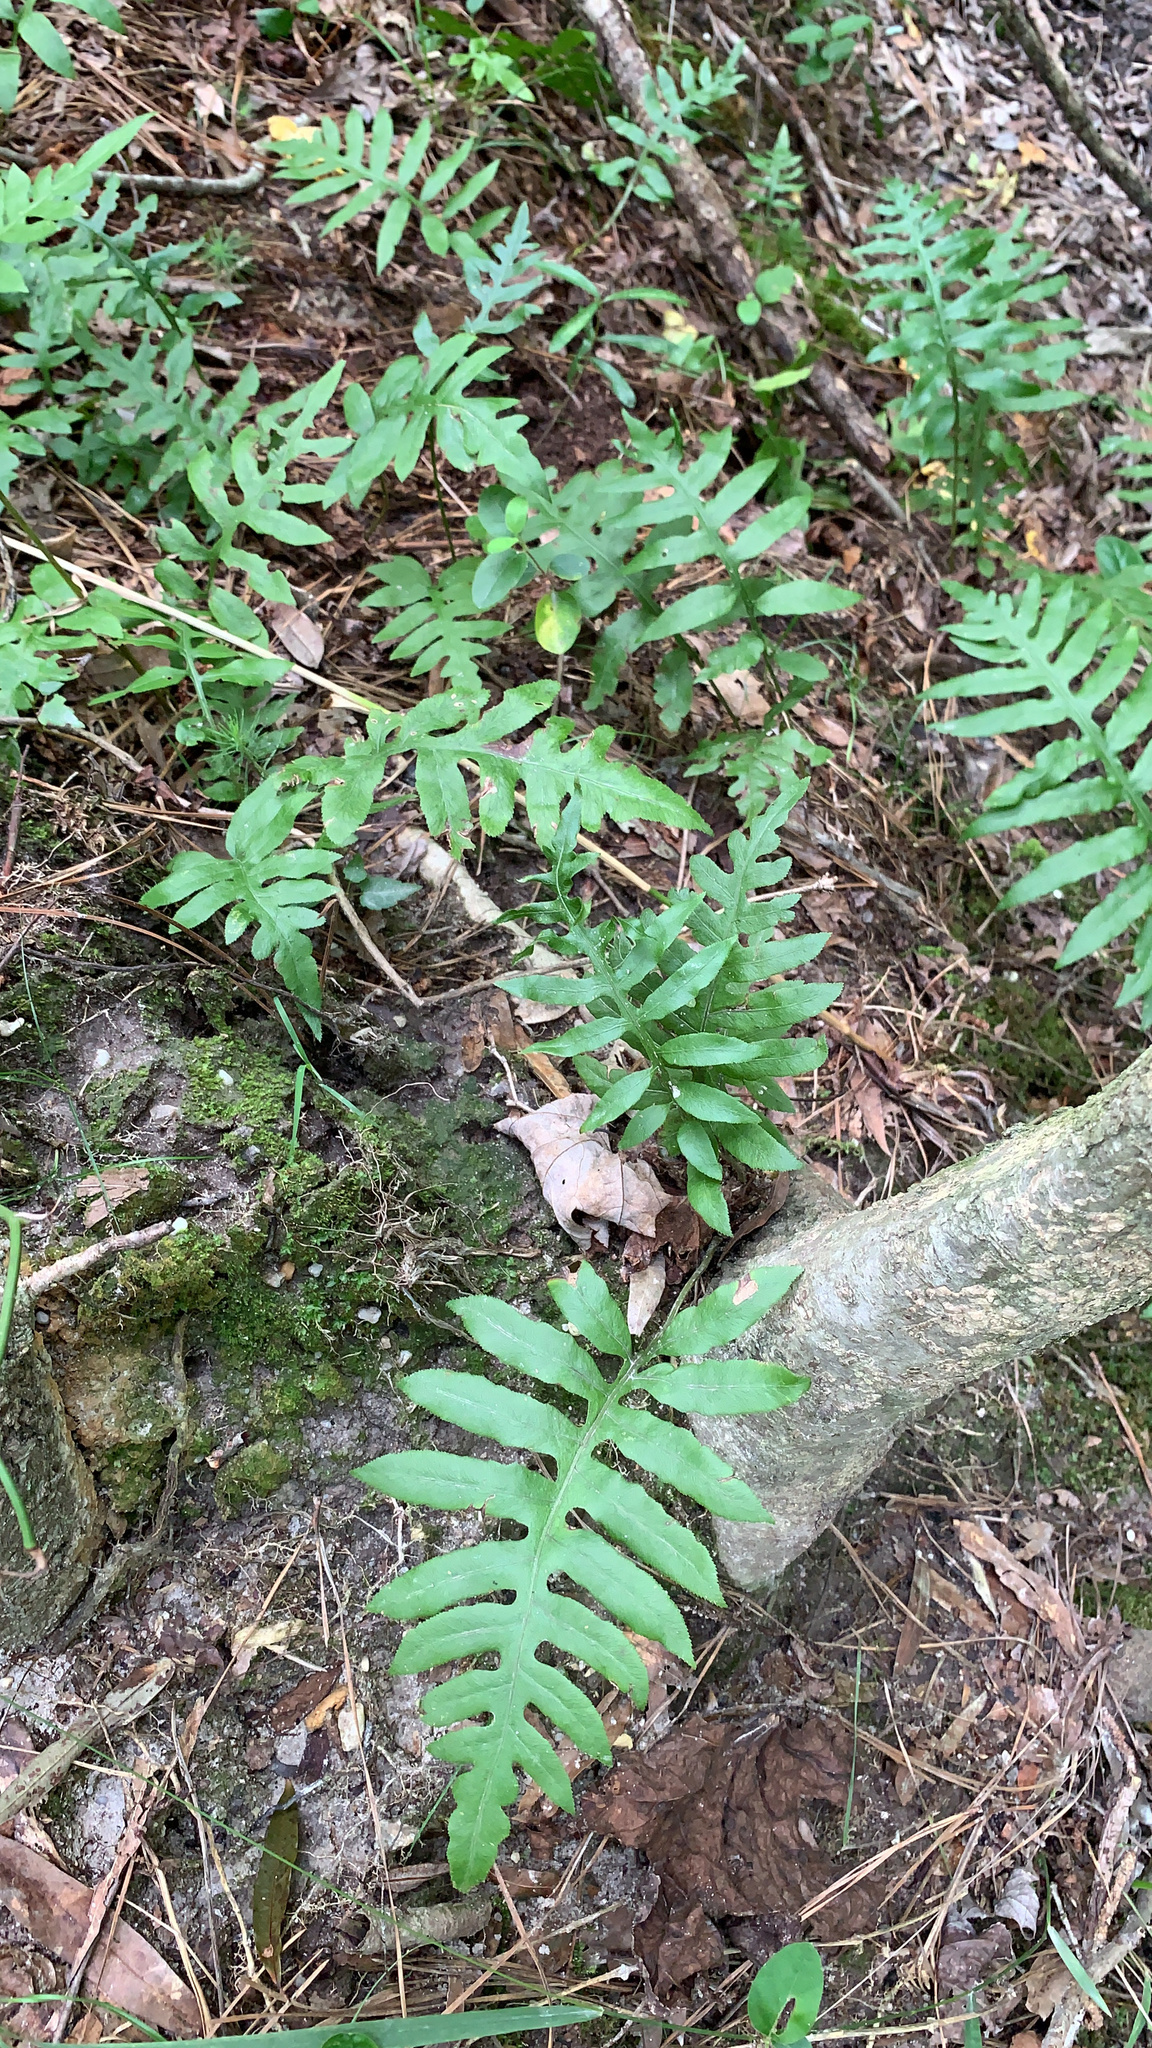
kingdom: Plantae
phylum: Tracheophyta
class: Polypodiopsida
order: Polypodiales
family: Blechnaceae
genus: Lorinseria
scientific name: Lorinseria areolata
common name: Dwarf chain fern
